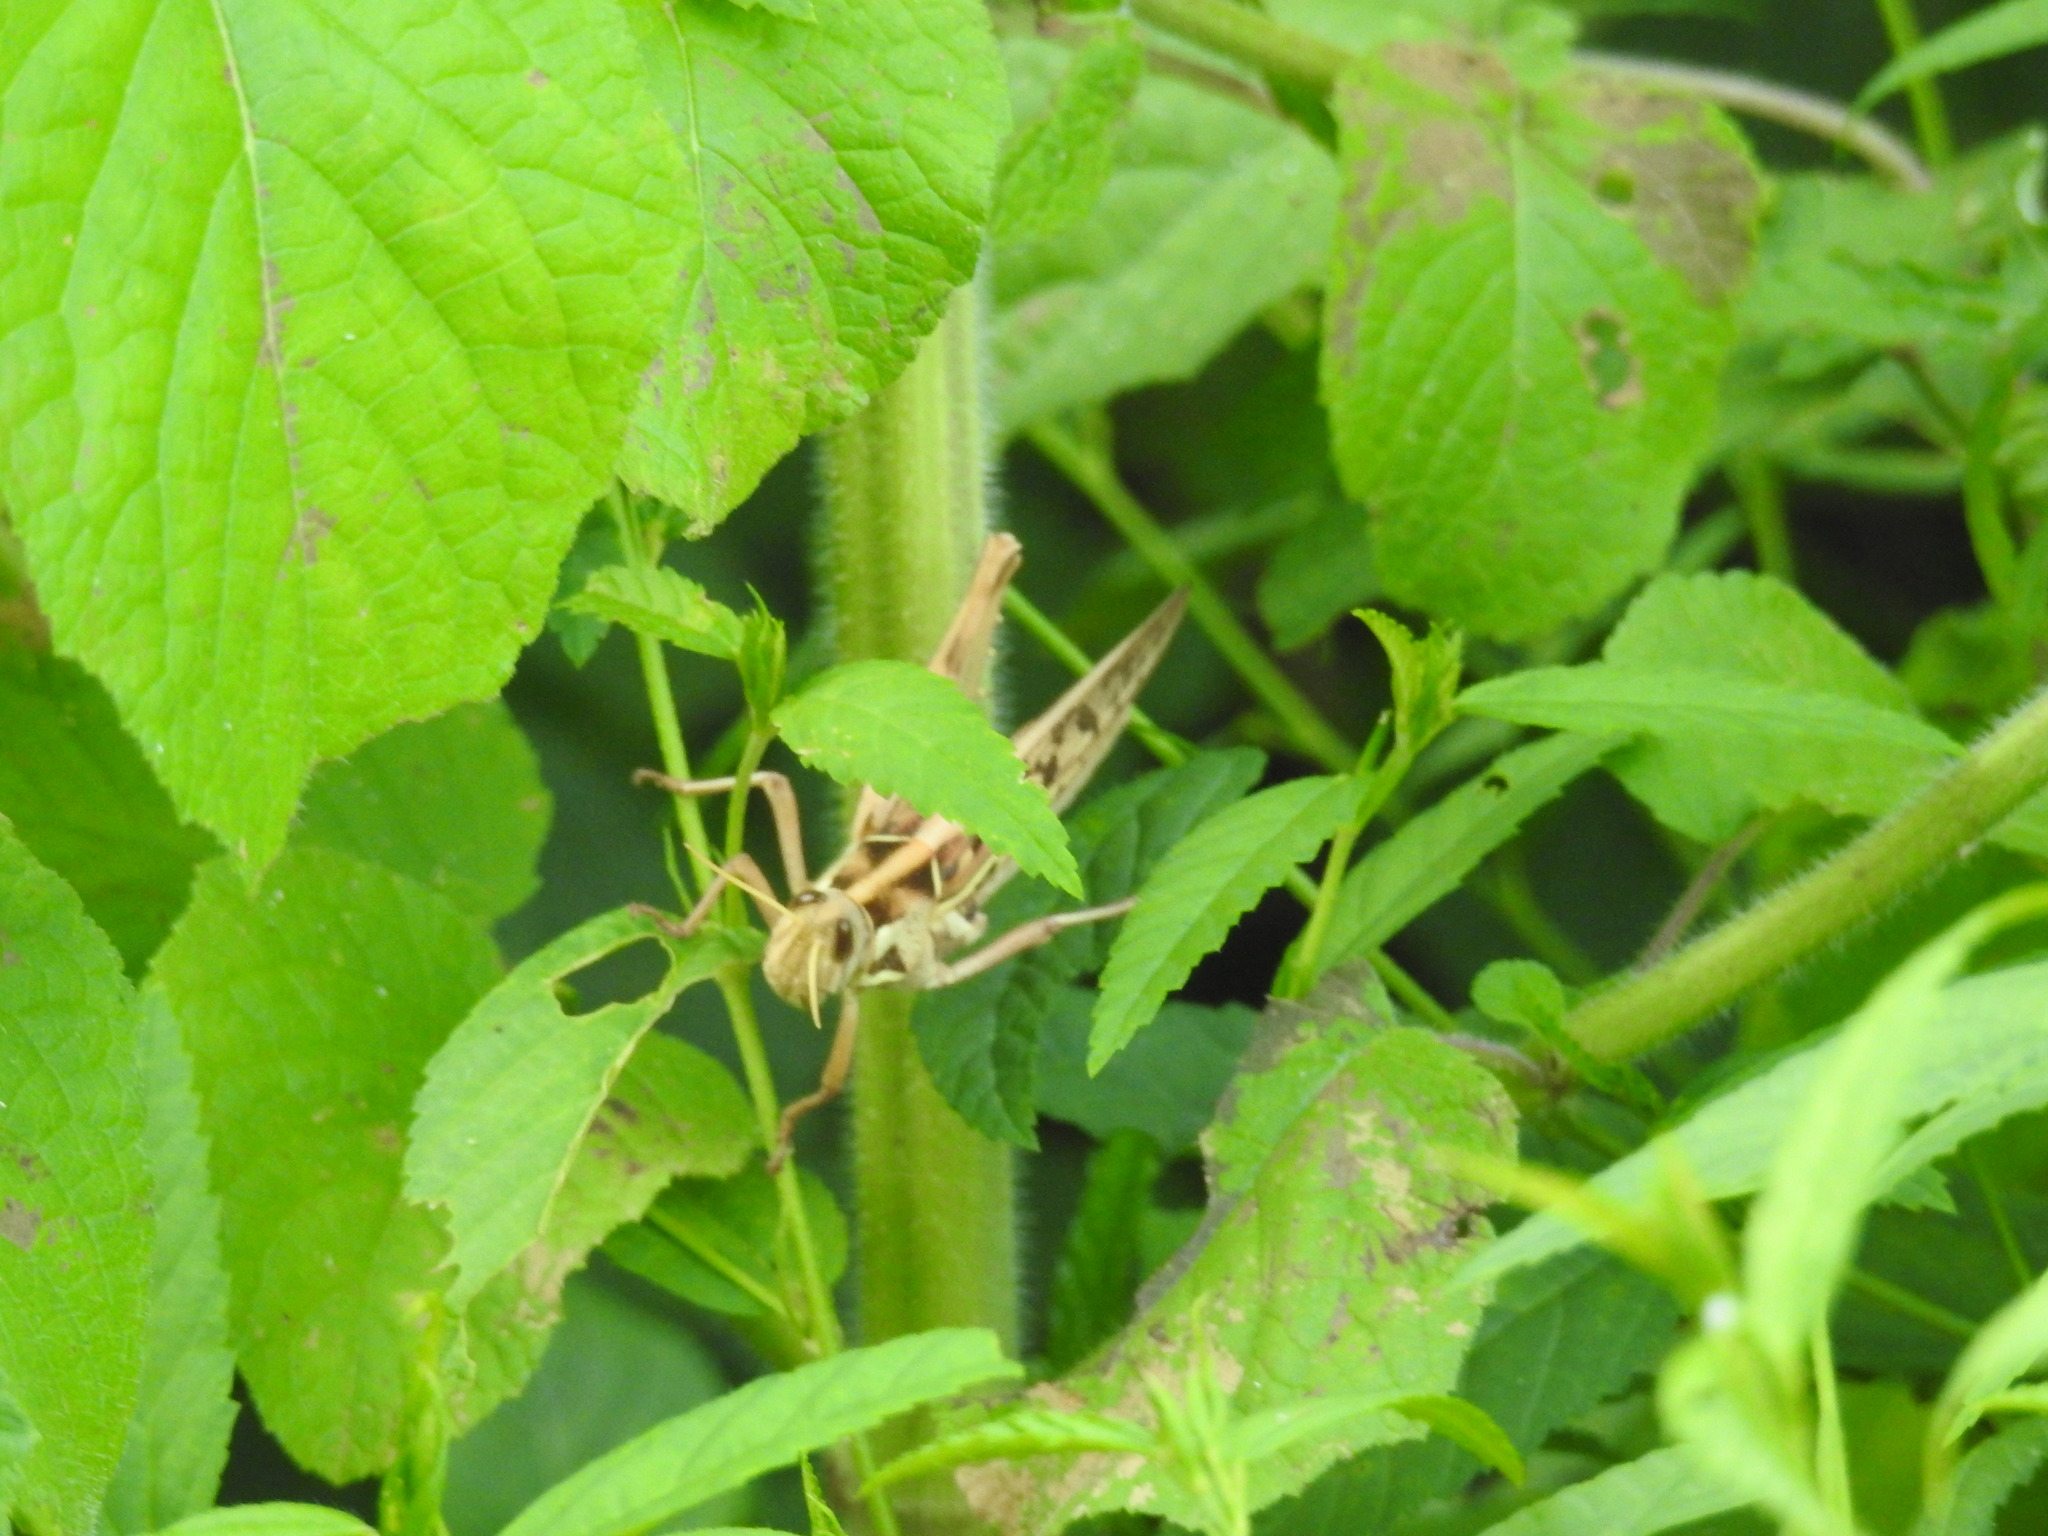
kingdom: Animalia
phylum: Arthropoda
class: Insecta
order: Orthoptera
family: Acrididae
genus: Cyrtacanthacris
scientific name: Cyrtacanthacris tatarica
